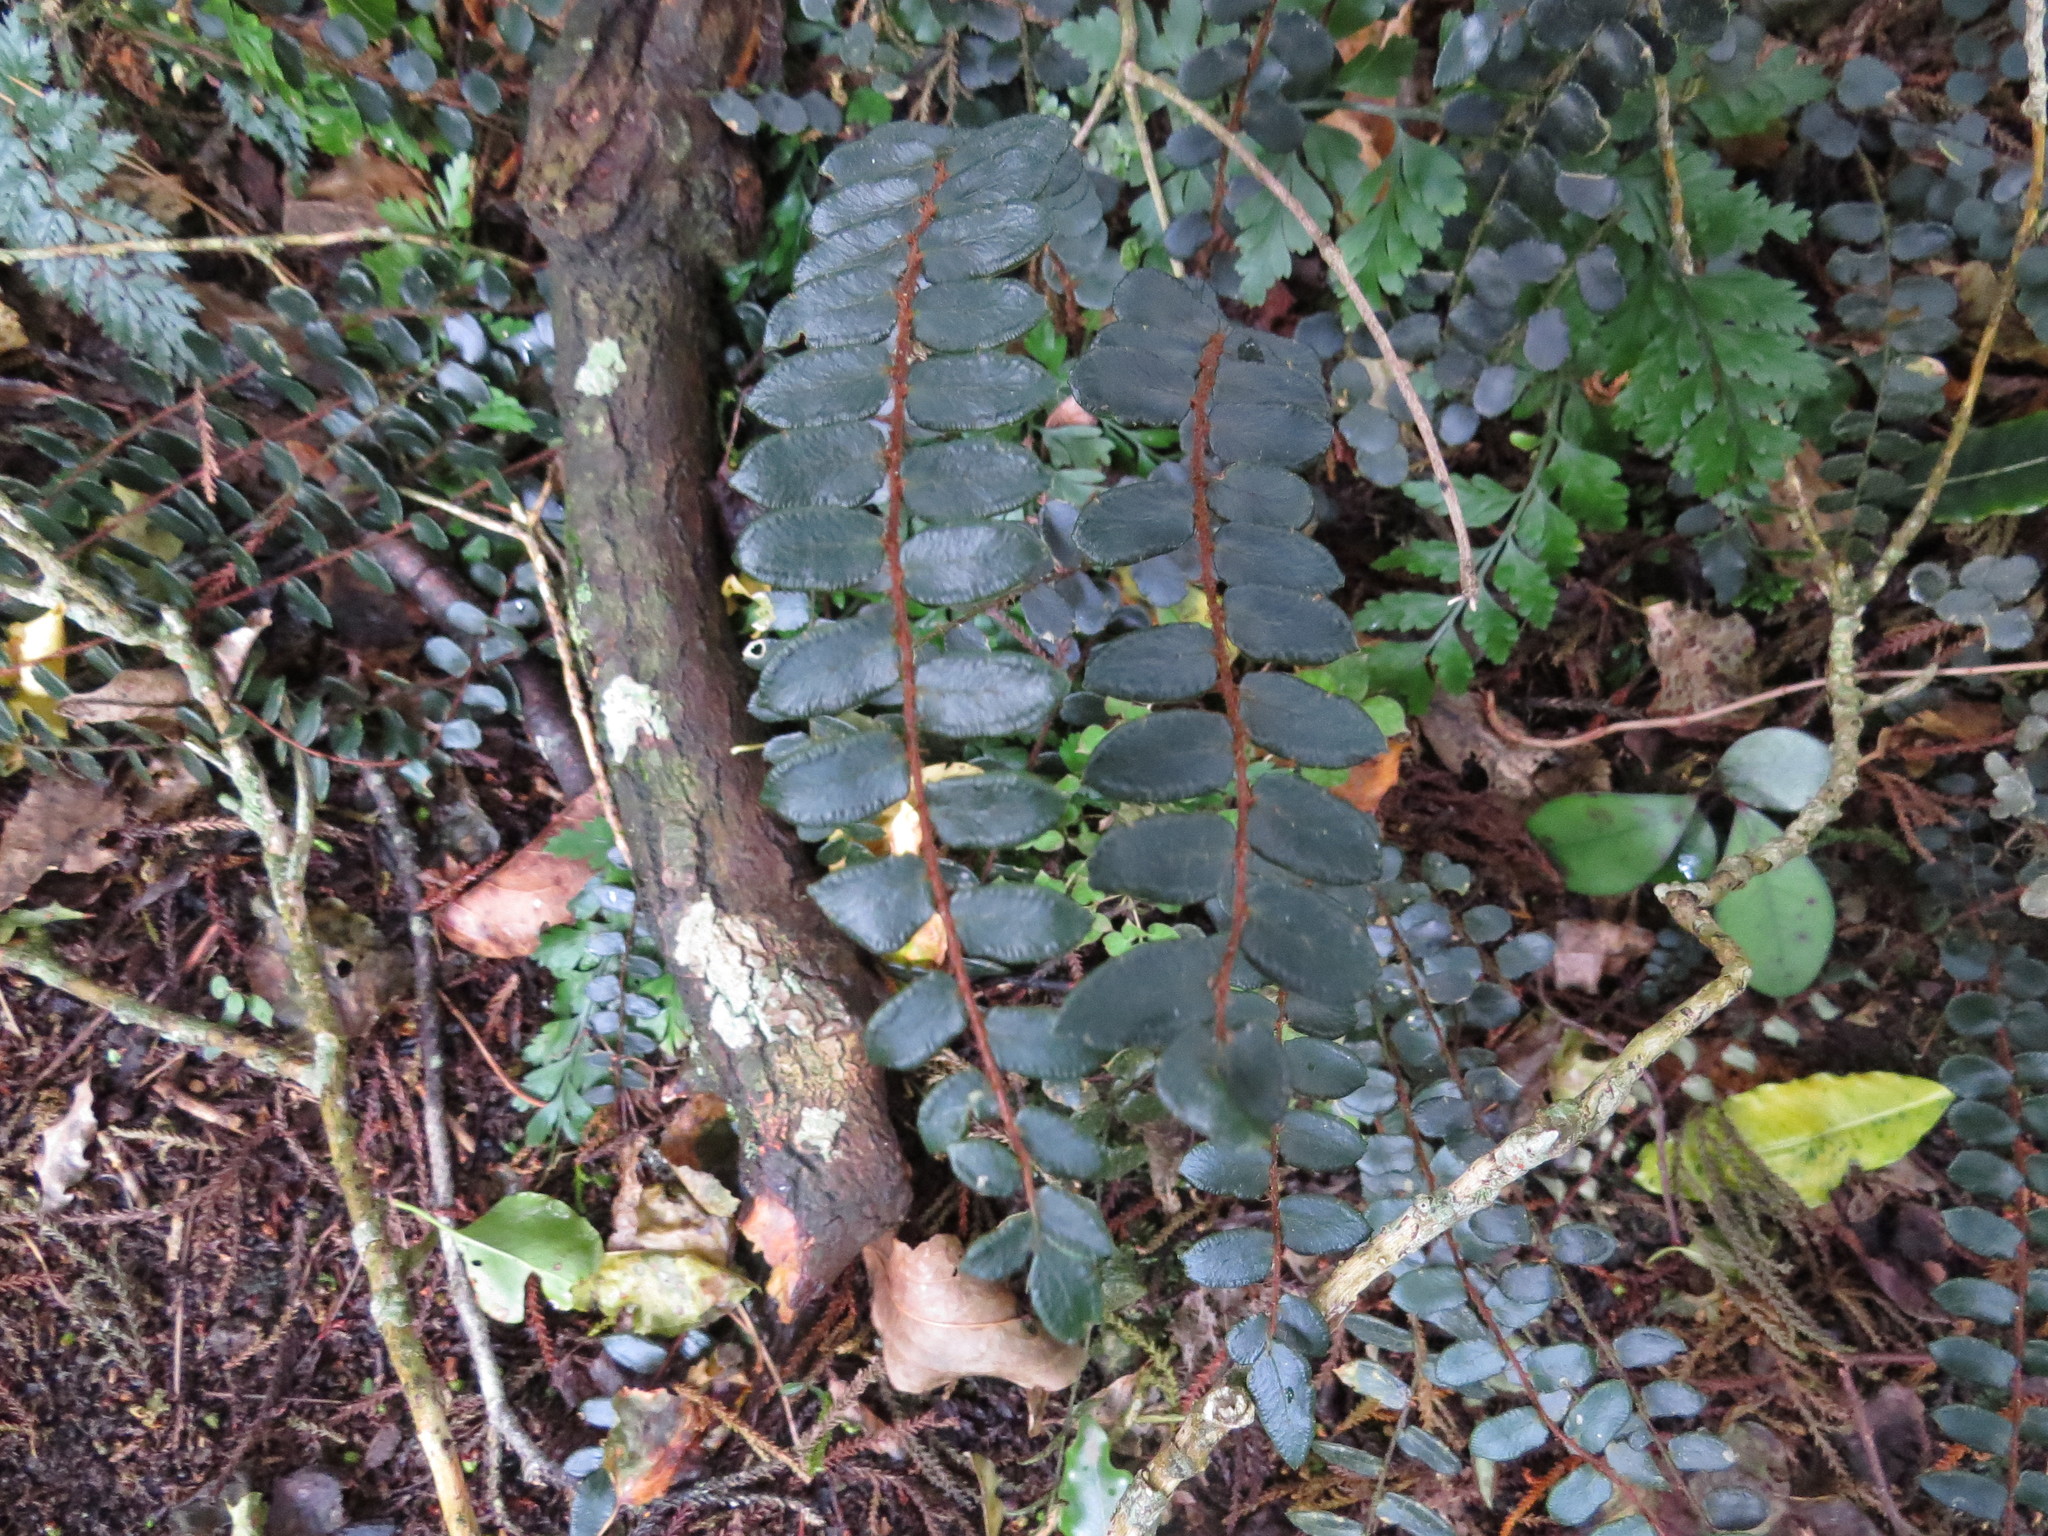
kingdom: Plantae
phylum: Tracheophyta
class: Polypodiopsida
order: Polypodiales
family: Pteridaceae
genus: Pellaea
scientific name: Pellaea rotundifolia
